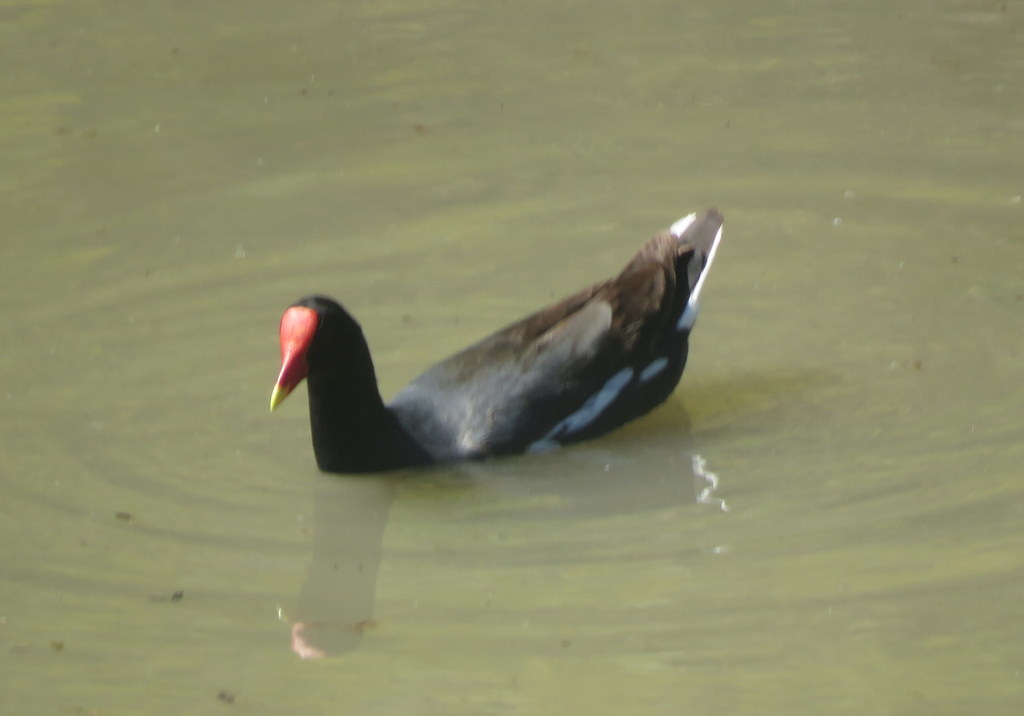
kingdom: Animalia
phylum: Chordata
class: Aves
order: Gruiformes
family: Rallidae
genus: Gallinula
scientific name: Gallinula chloropus
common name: Common moorhen
